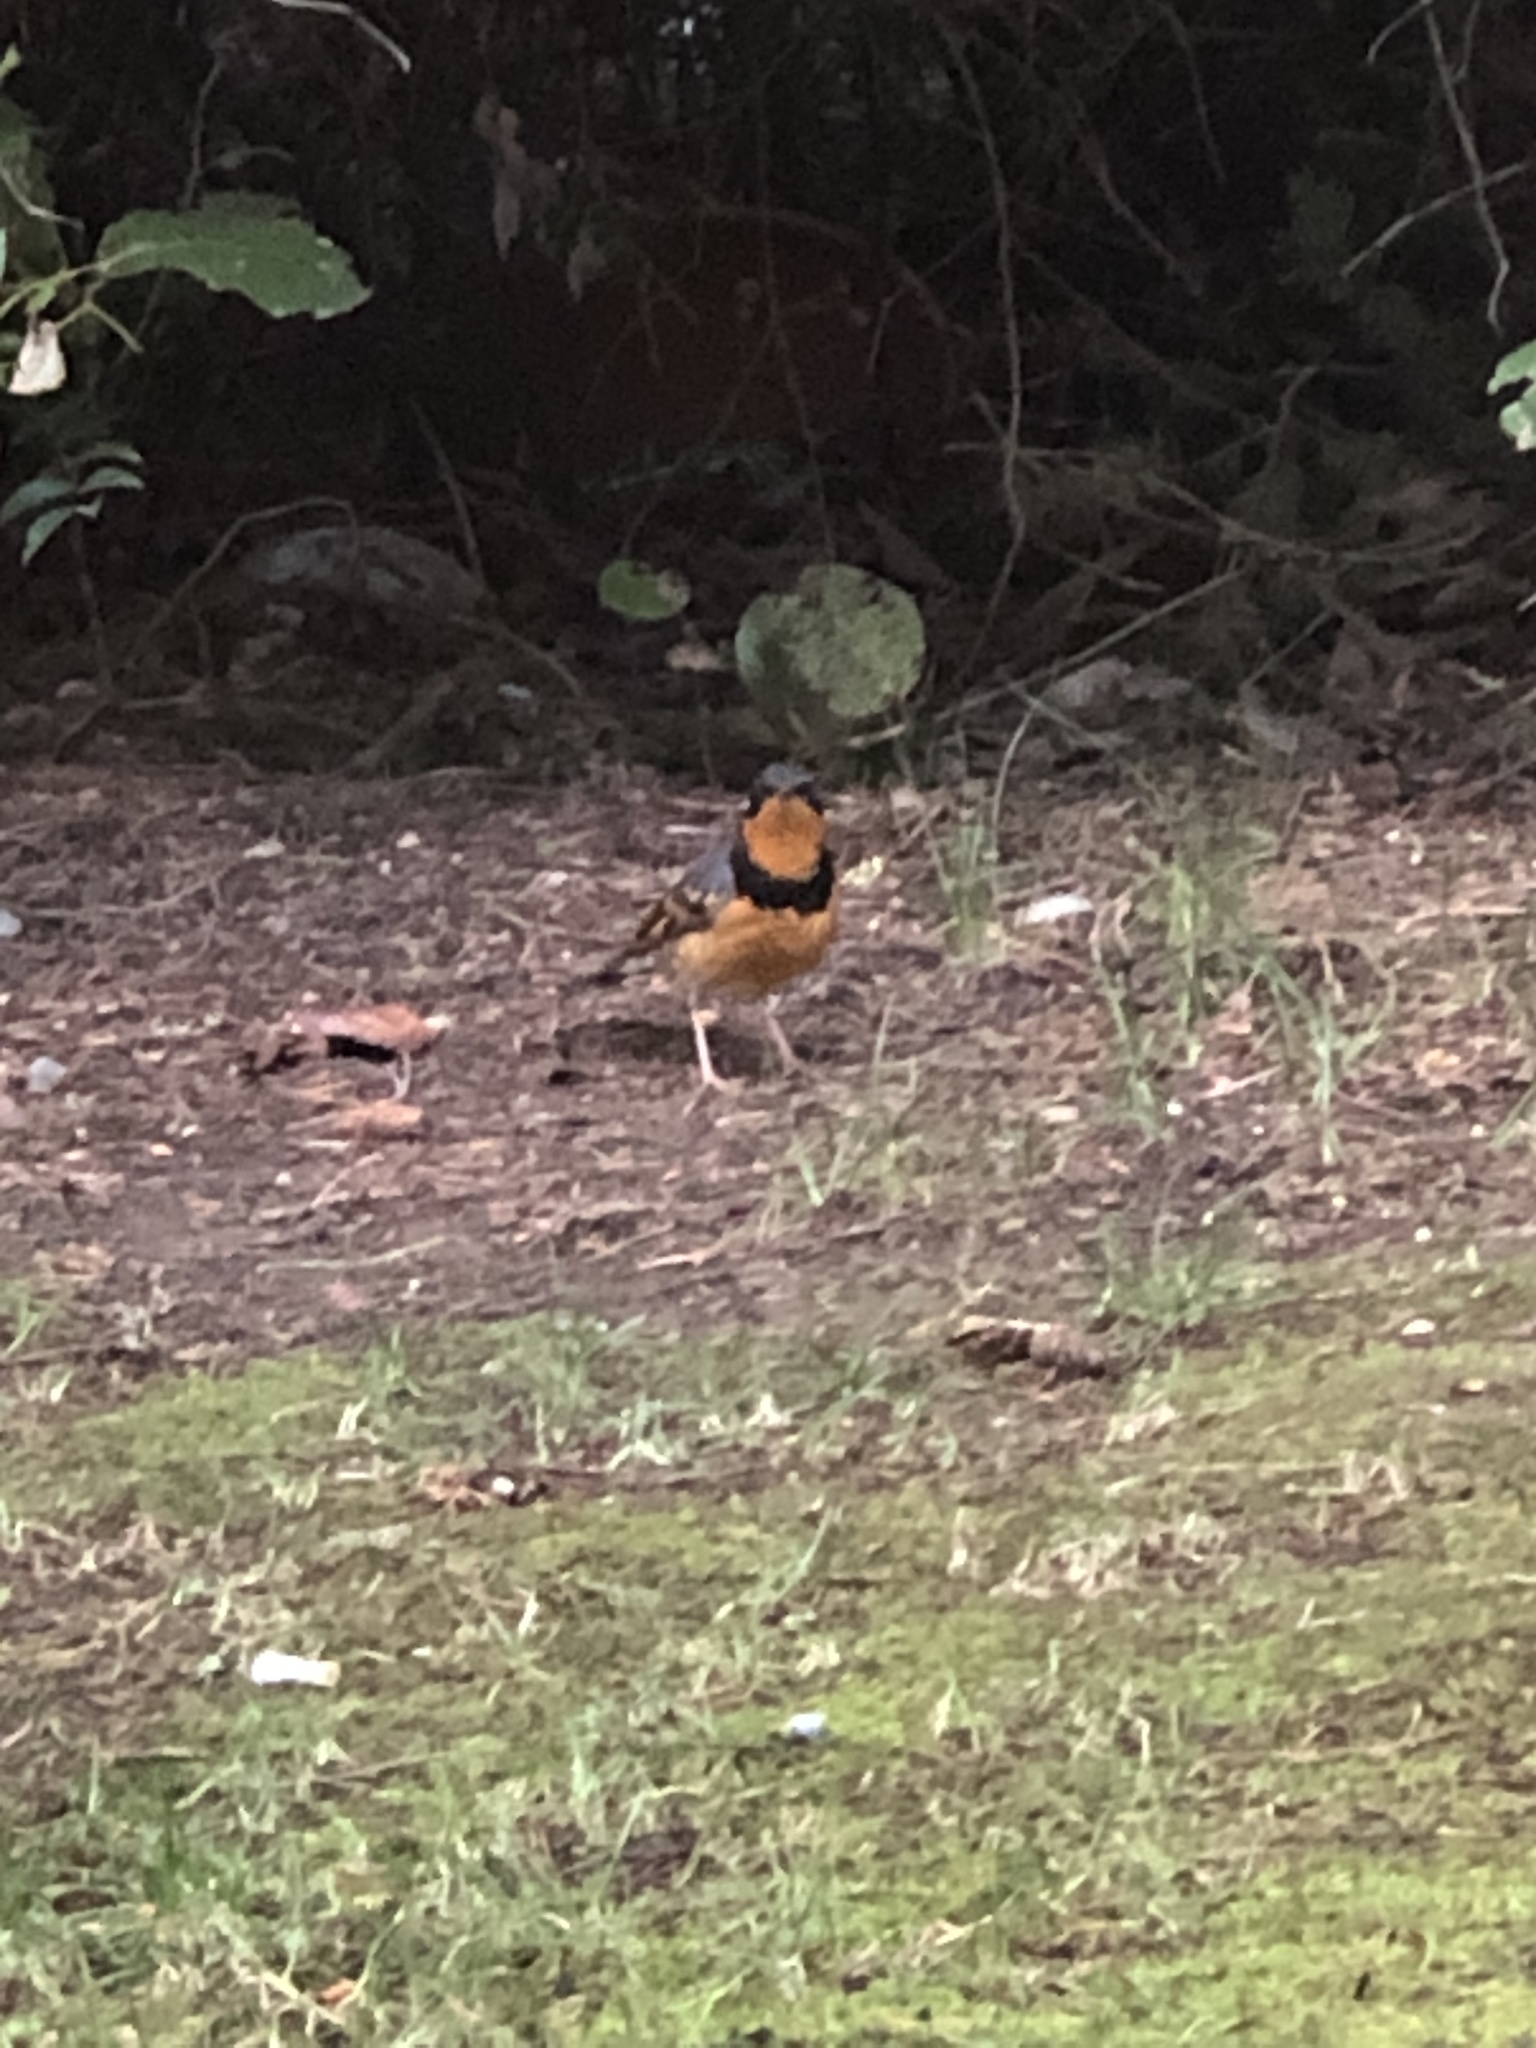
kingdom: Animalia
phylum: Chordata
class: Aves
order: Passeriformes
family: Turdidae
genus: Ixoreus
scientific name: Ixoreus naevius
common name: Varied thrush
